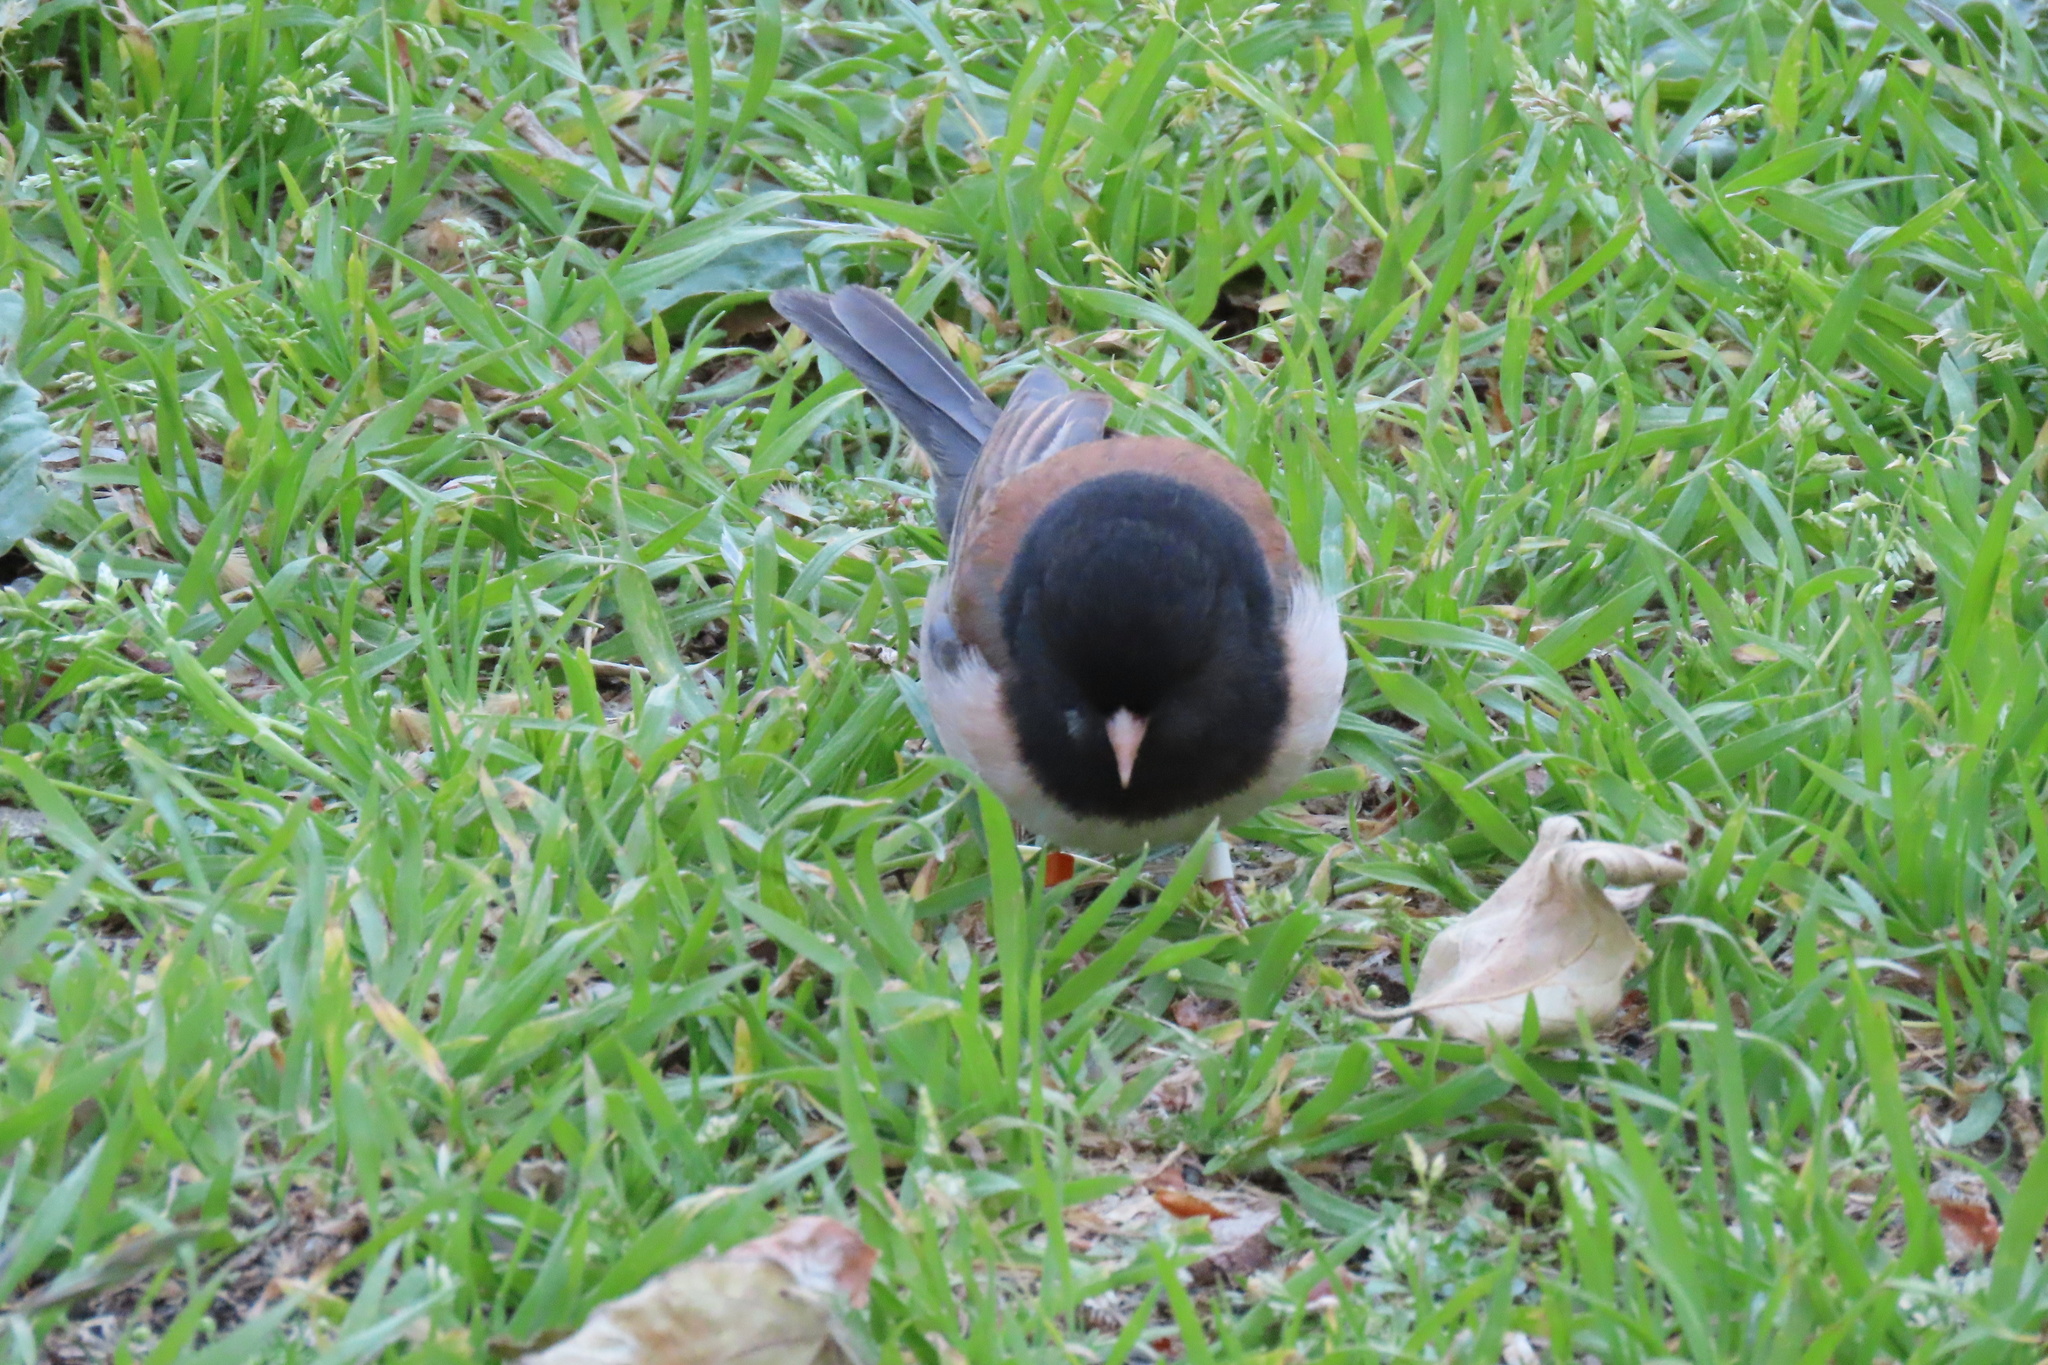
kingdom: Animalia
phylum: Chordata
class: Aves
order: Passeriformes
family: Passerellidae
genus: Junco
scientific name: Junco hyemalis
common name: Dark-eyed junco
